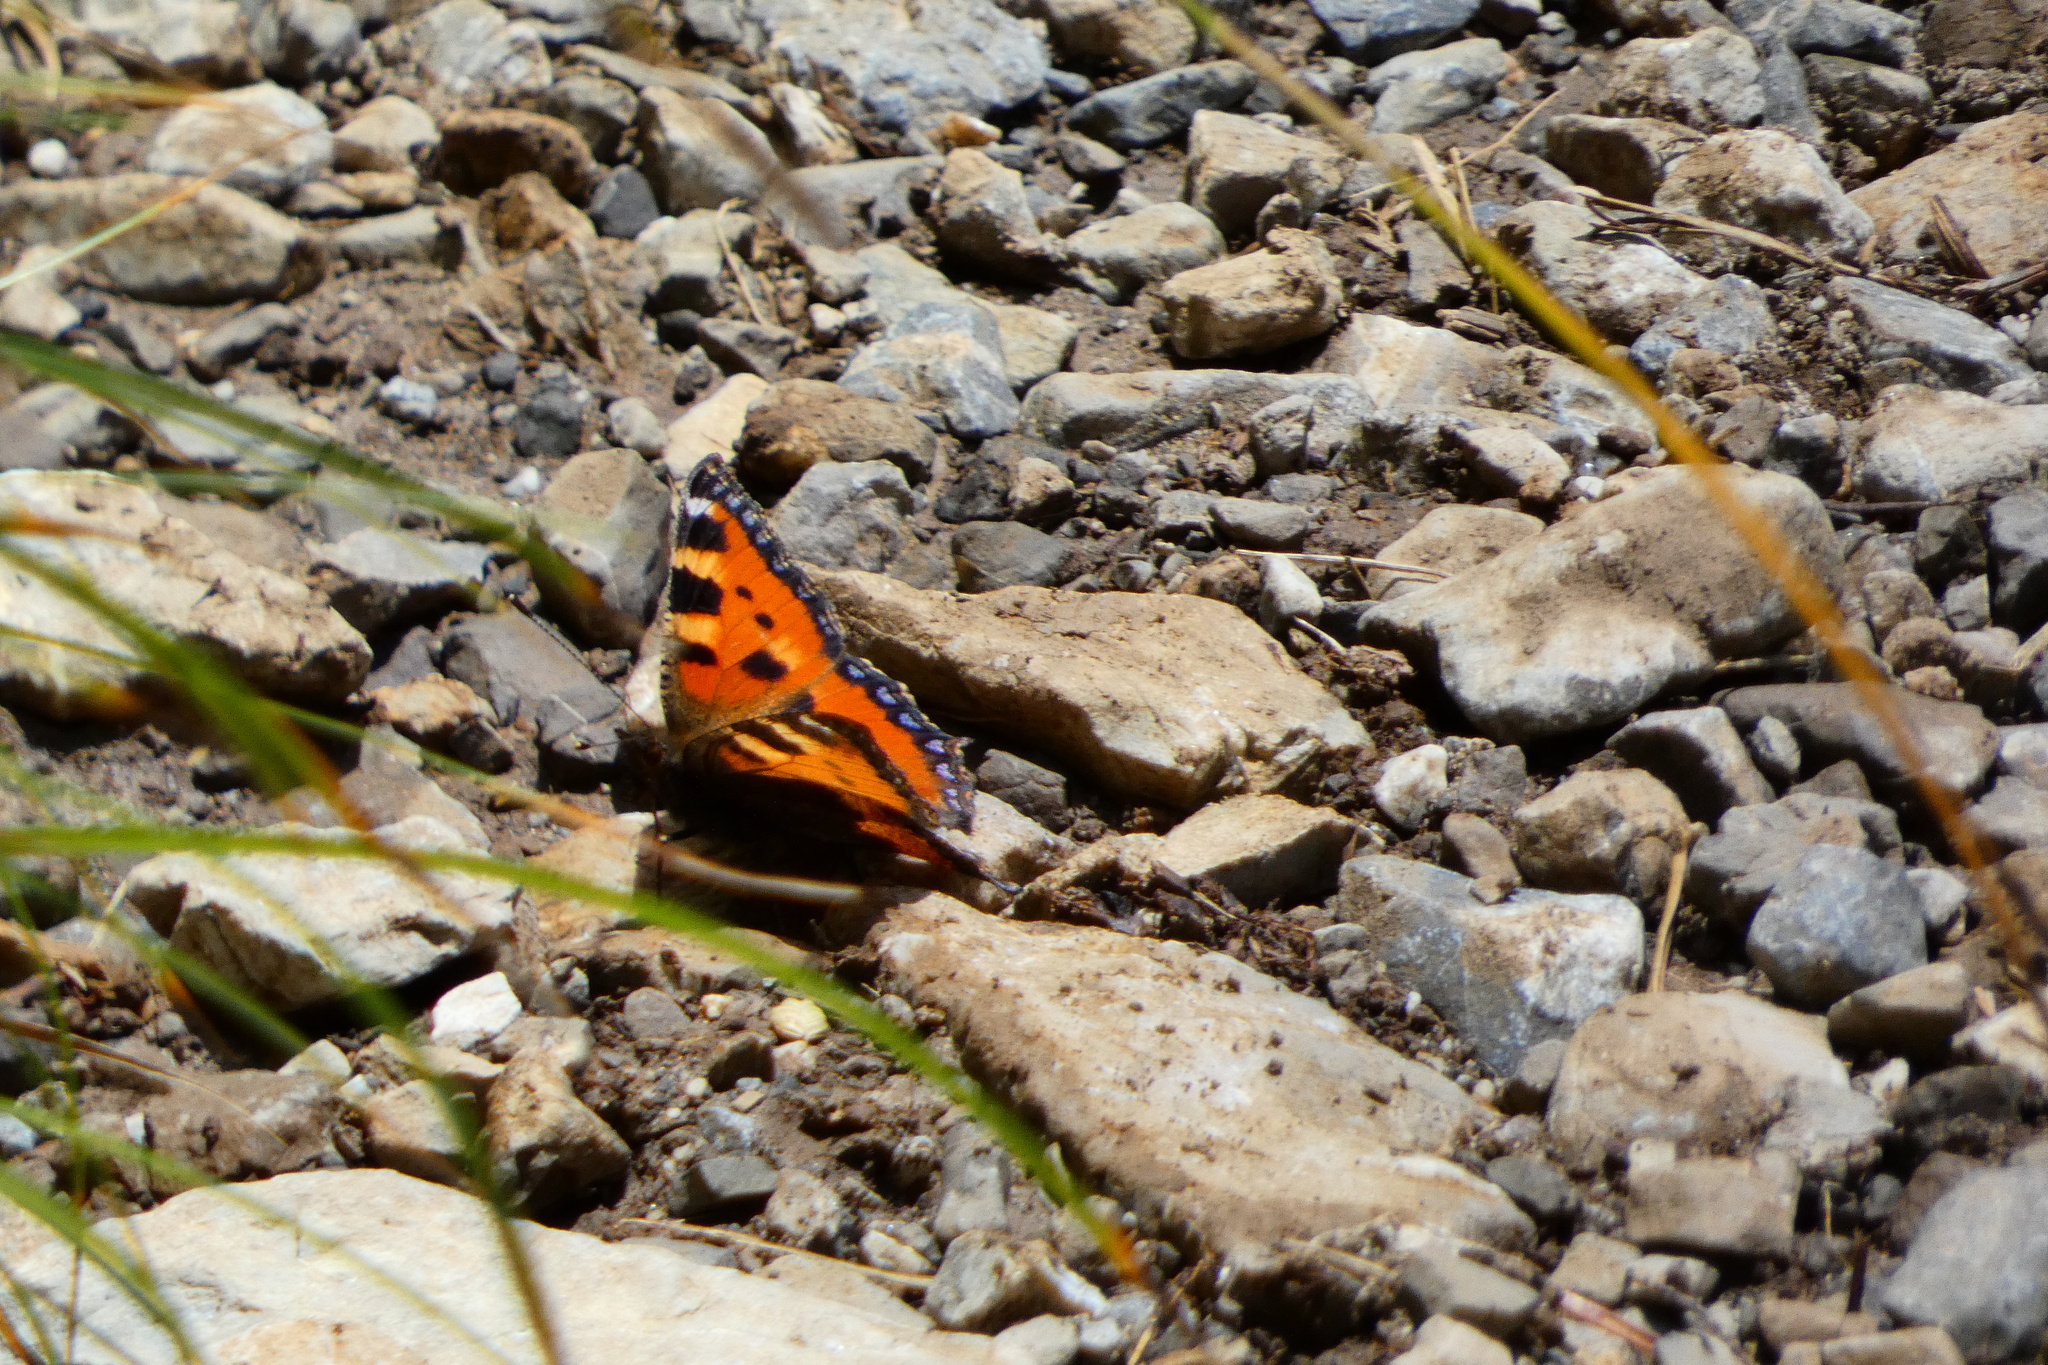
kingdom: Animalia
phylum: Arthropoda
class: Insecta
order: Lepidoptera
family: Nymphalidae
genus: Aglais
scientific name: Aglais urticae
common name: Small tortoiseshell
